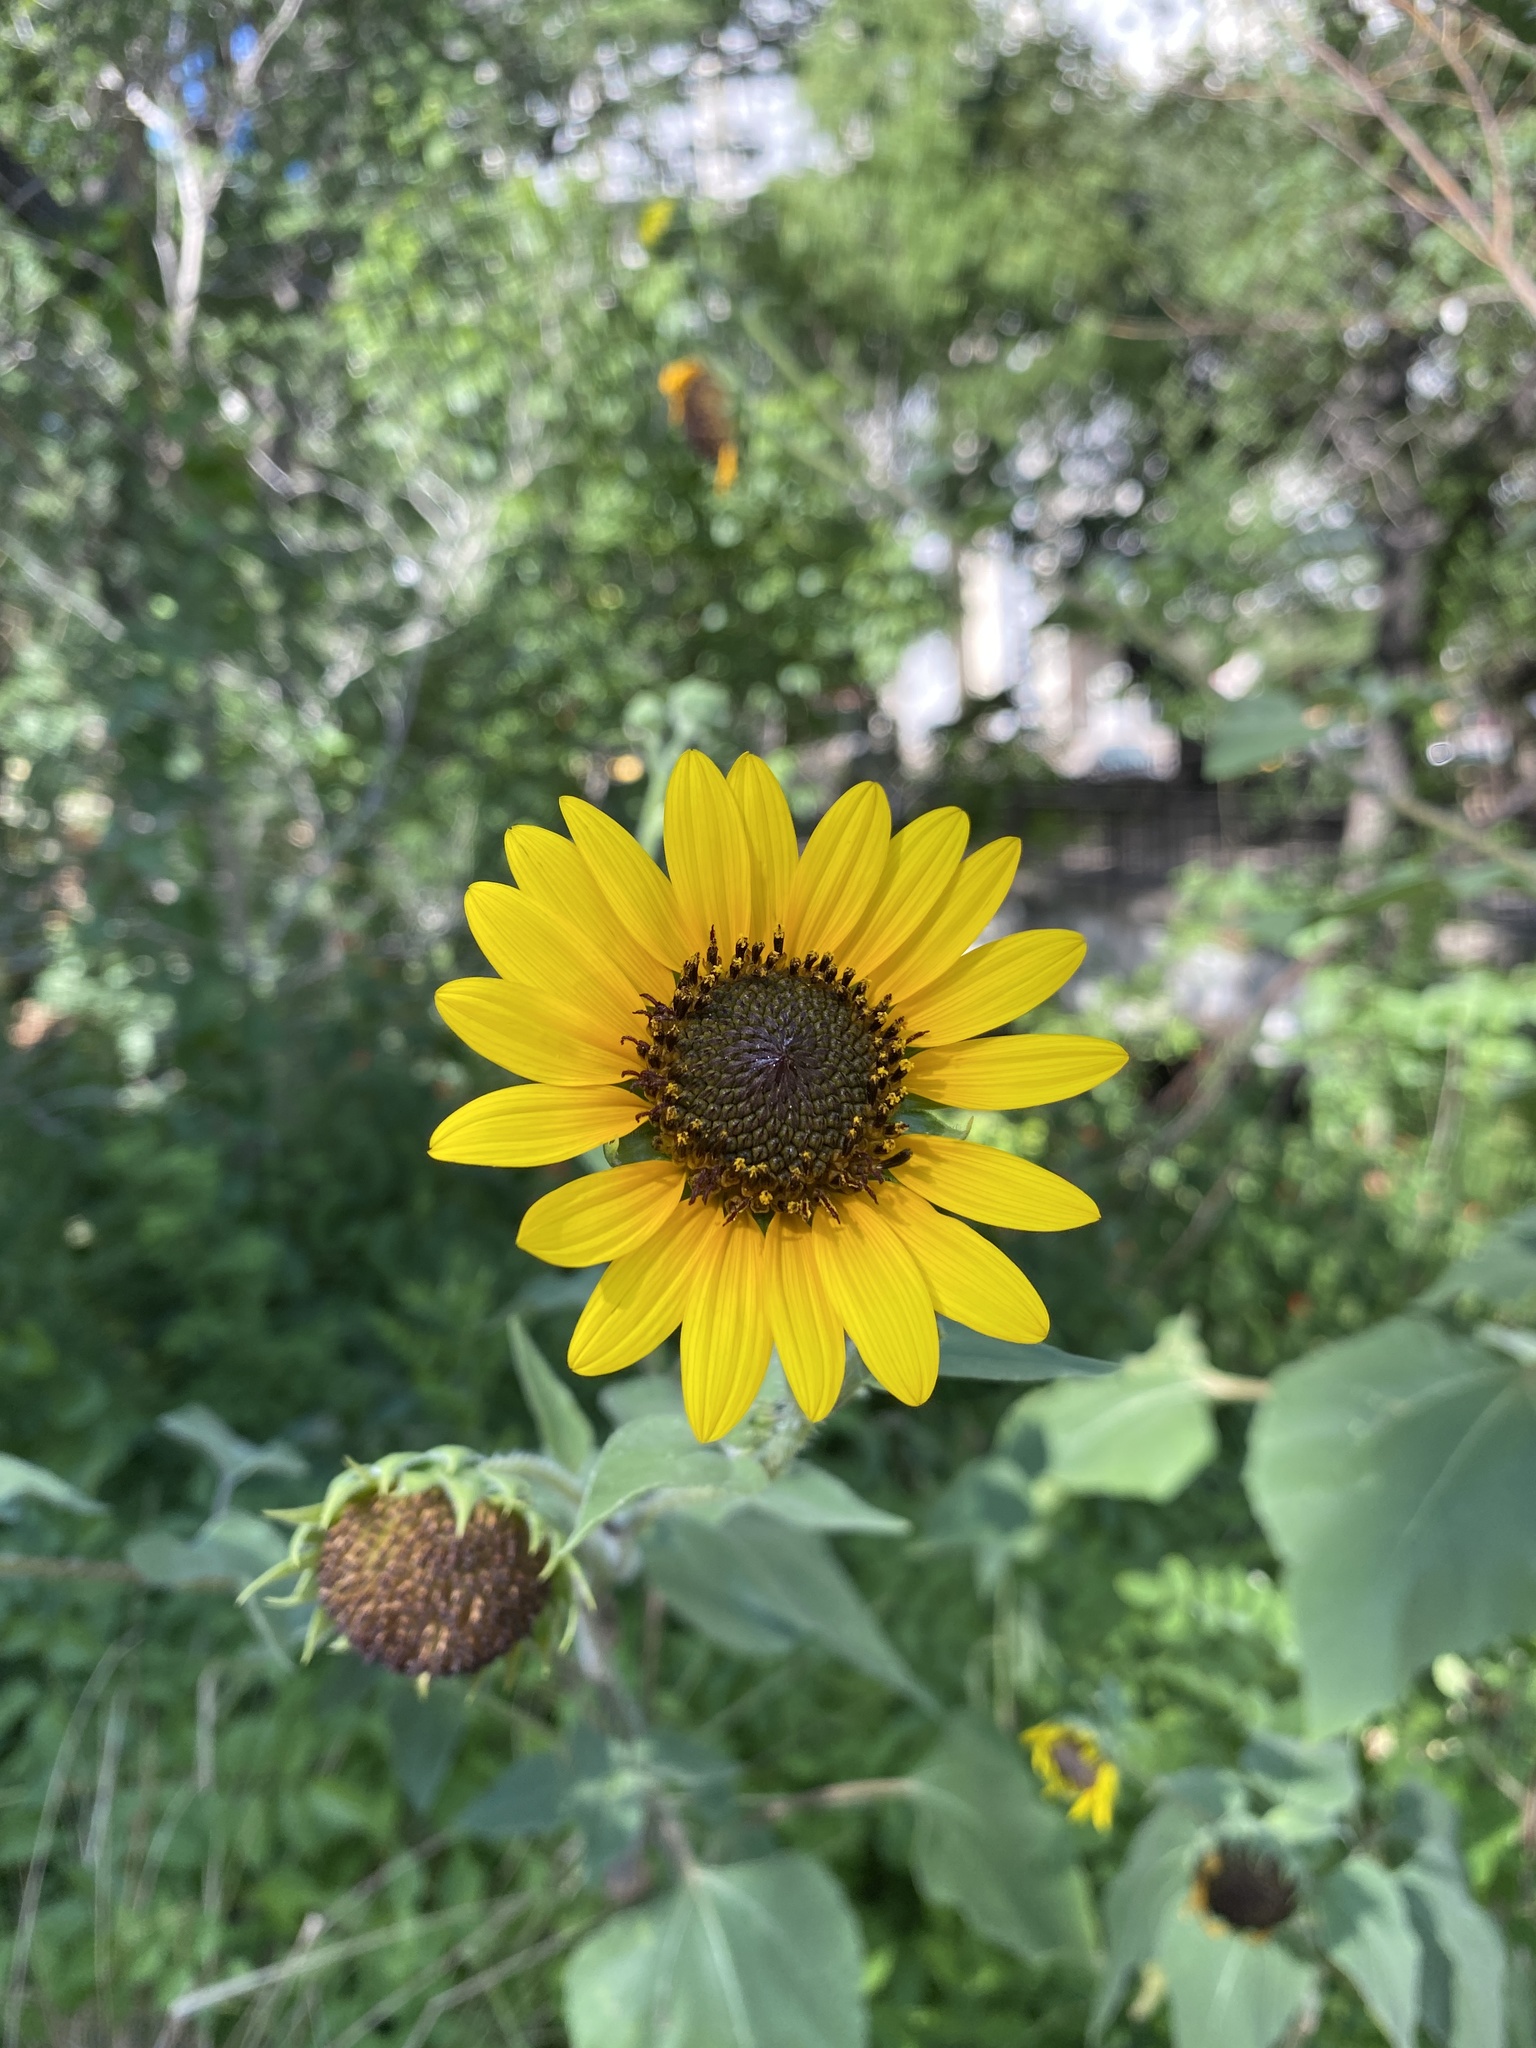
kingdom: Plantae
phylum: Tracheophyta
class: Magnoliopsida
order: Asterales
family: Asteraceae
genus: Helianthus
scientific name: Helianthus annuus
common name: Sunflower
